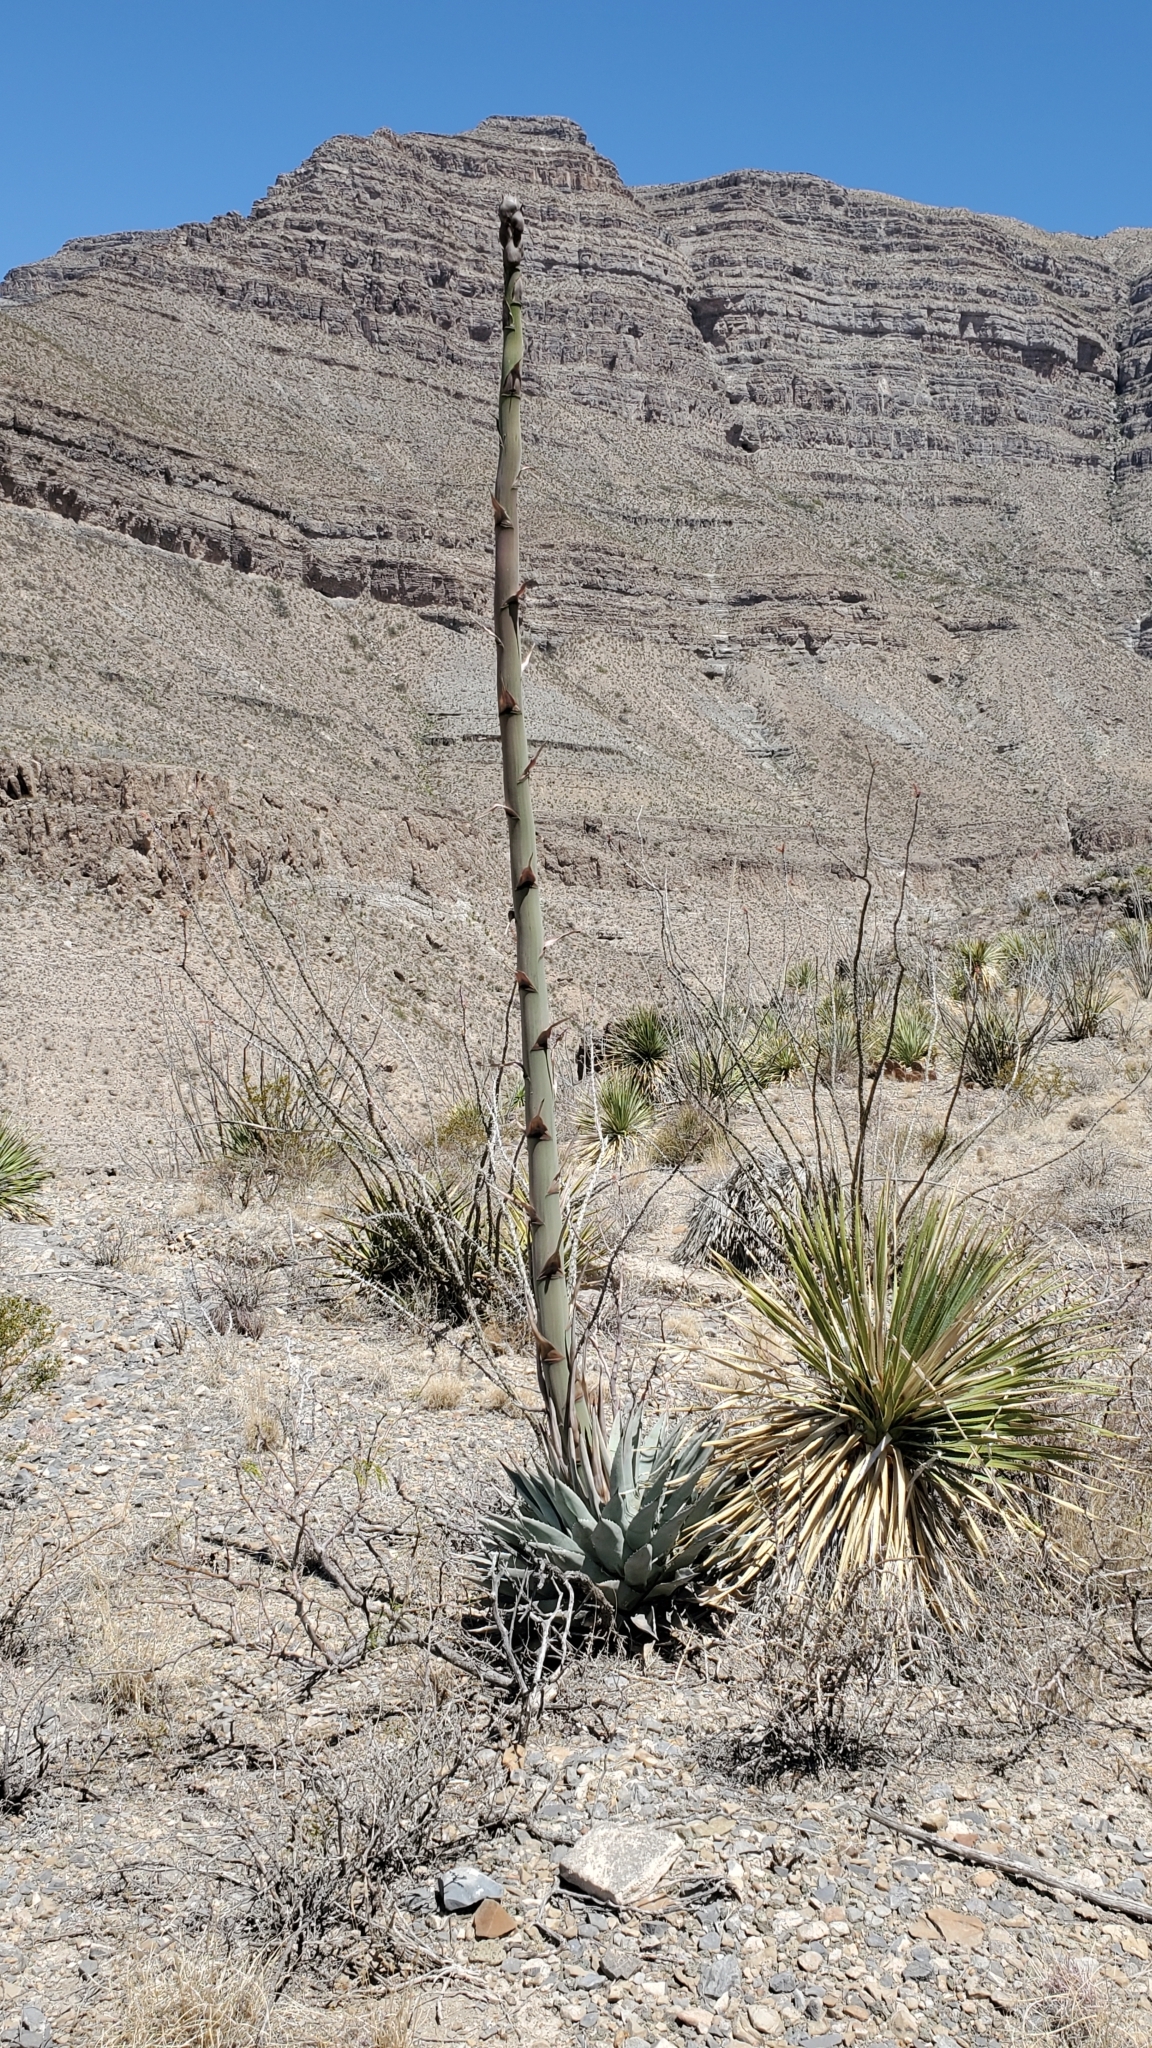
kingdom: Plantae
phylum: Tracheophyta
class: Liliopsida
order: Asparagales
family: Asparagaceae
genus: Agave
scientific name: Agave parryi
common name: Parry's agave
